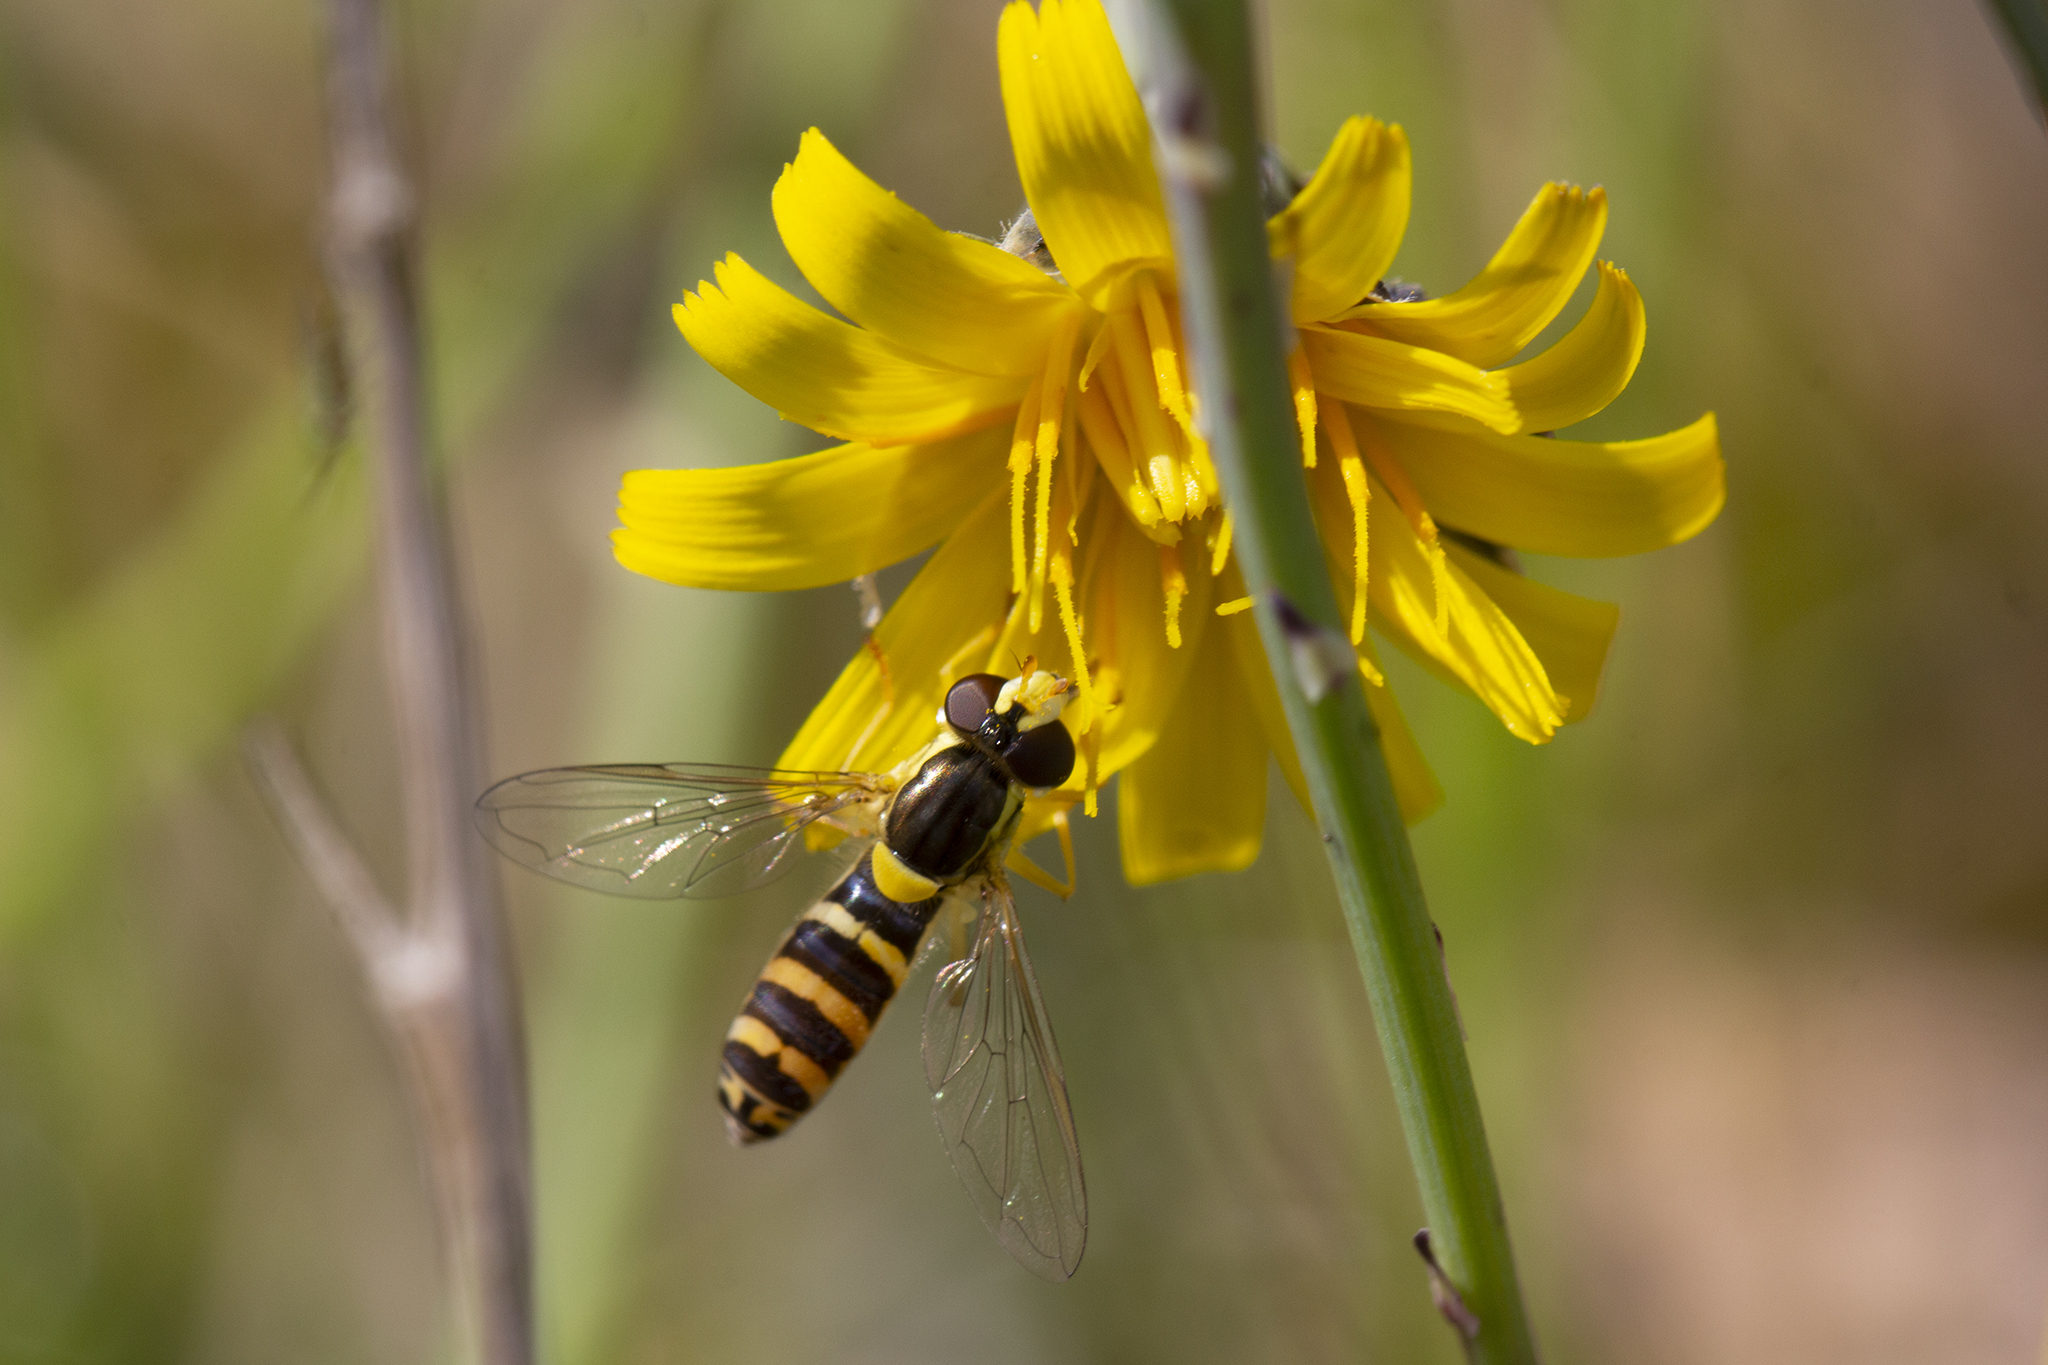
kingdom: Animalia
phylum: Arthropoda
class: Insecta
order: Diptera
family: Syrphidae
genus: Sphaerophoria
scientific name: Sphaerophoria
